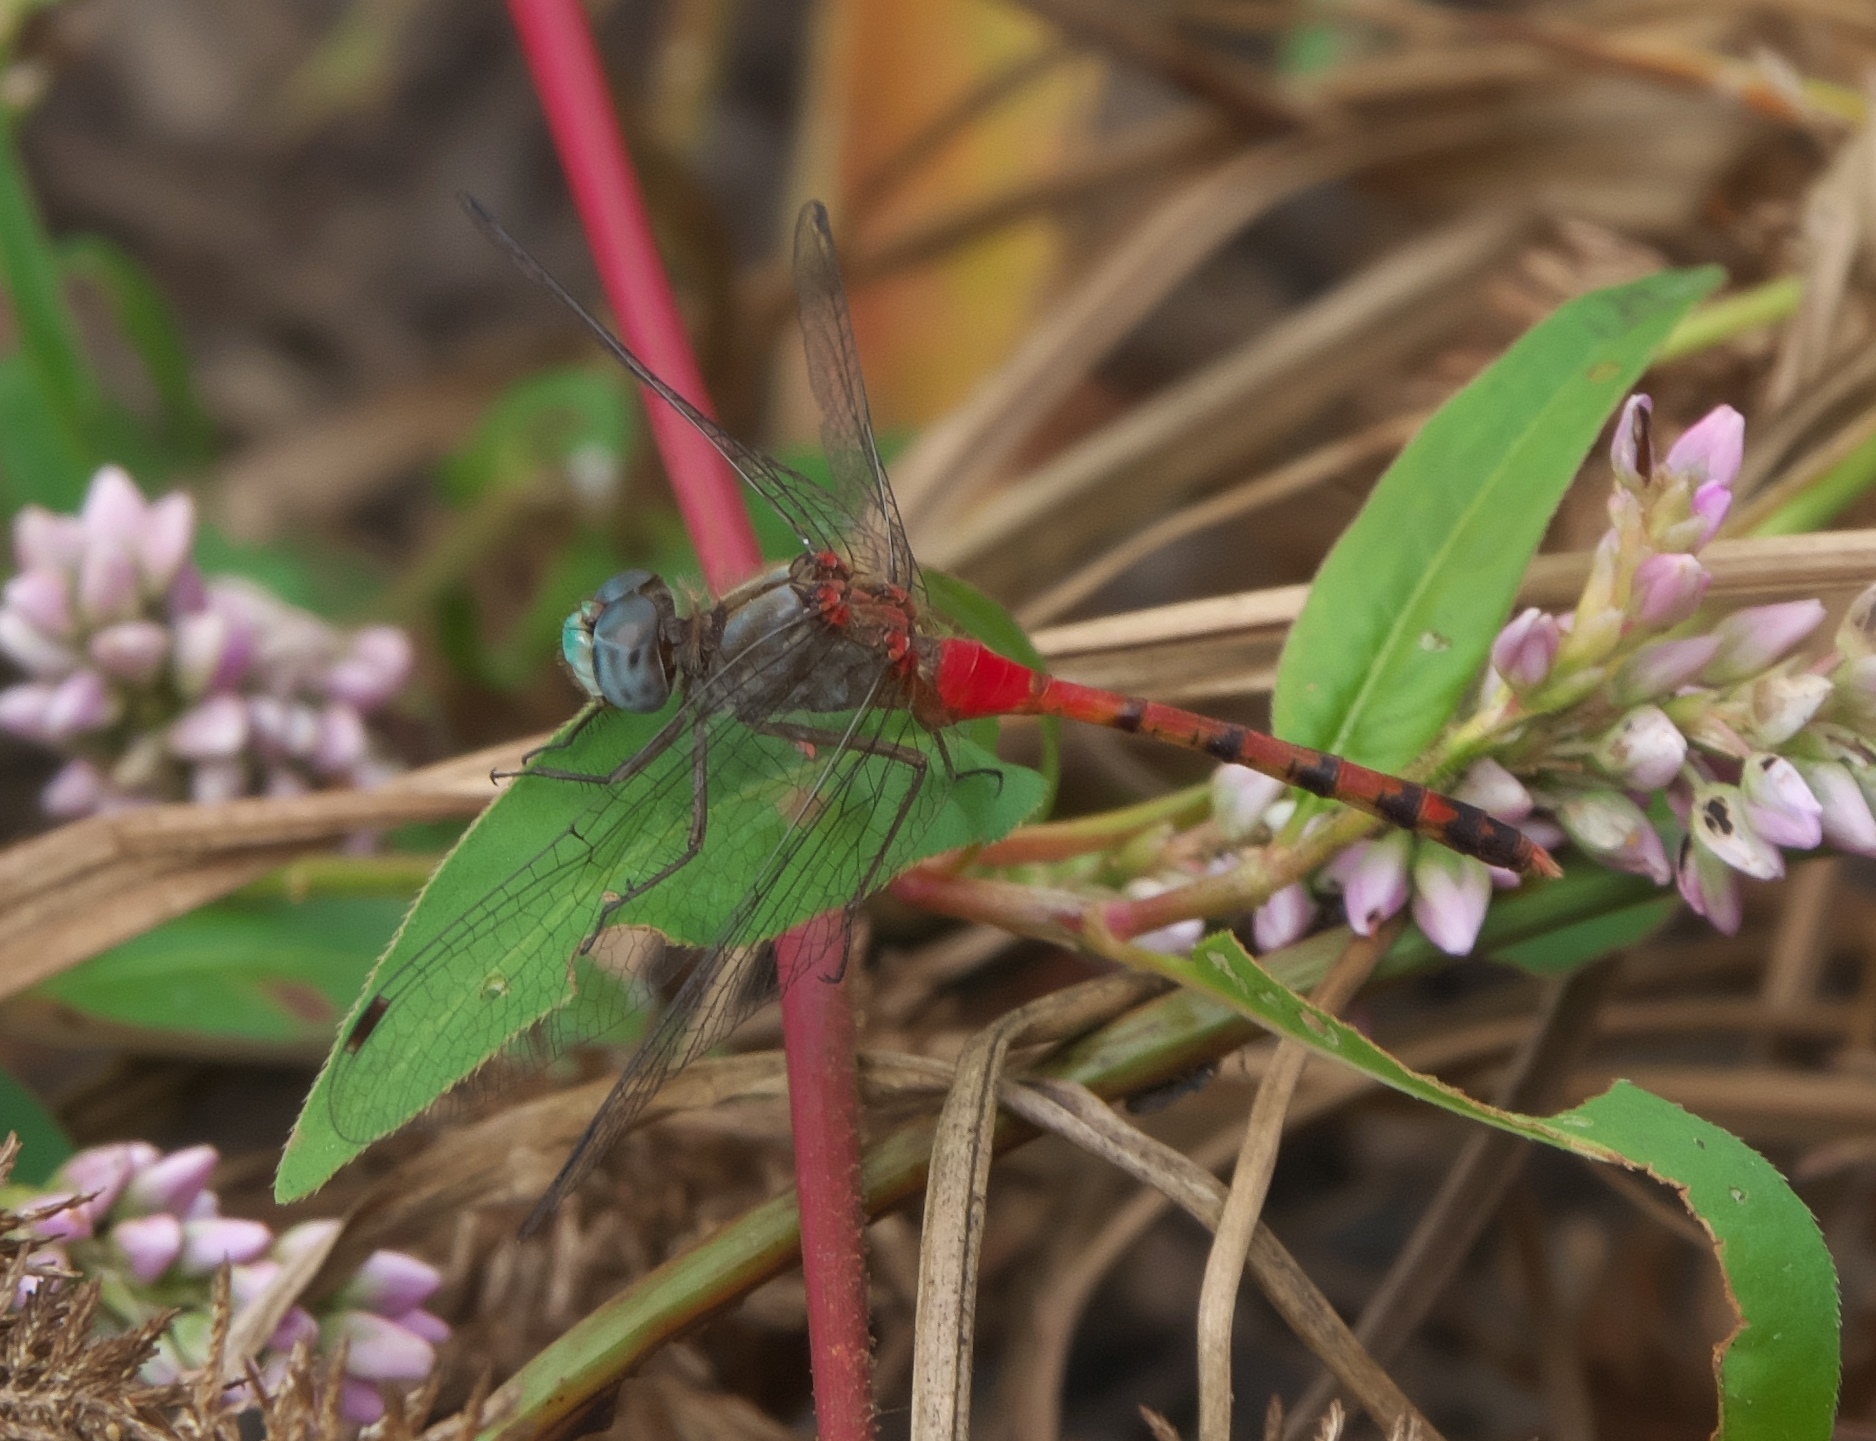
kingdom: Animalia
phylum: Arthropoda
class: Insecta
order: Odonata
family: Libellulidae
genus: Sympetrum
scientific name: Sympetrum ambiguum
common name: Blue-faced meadowhawk
